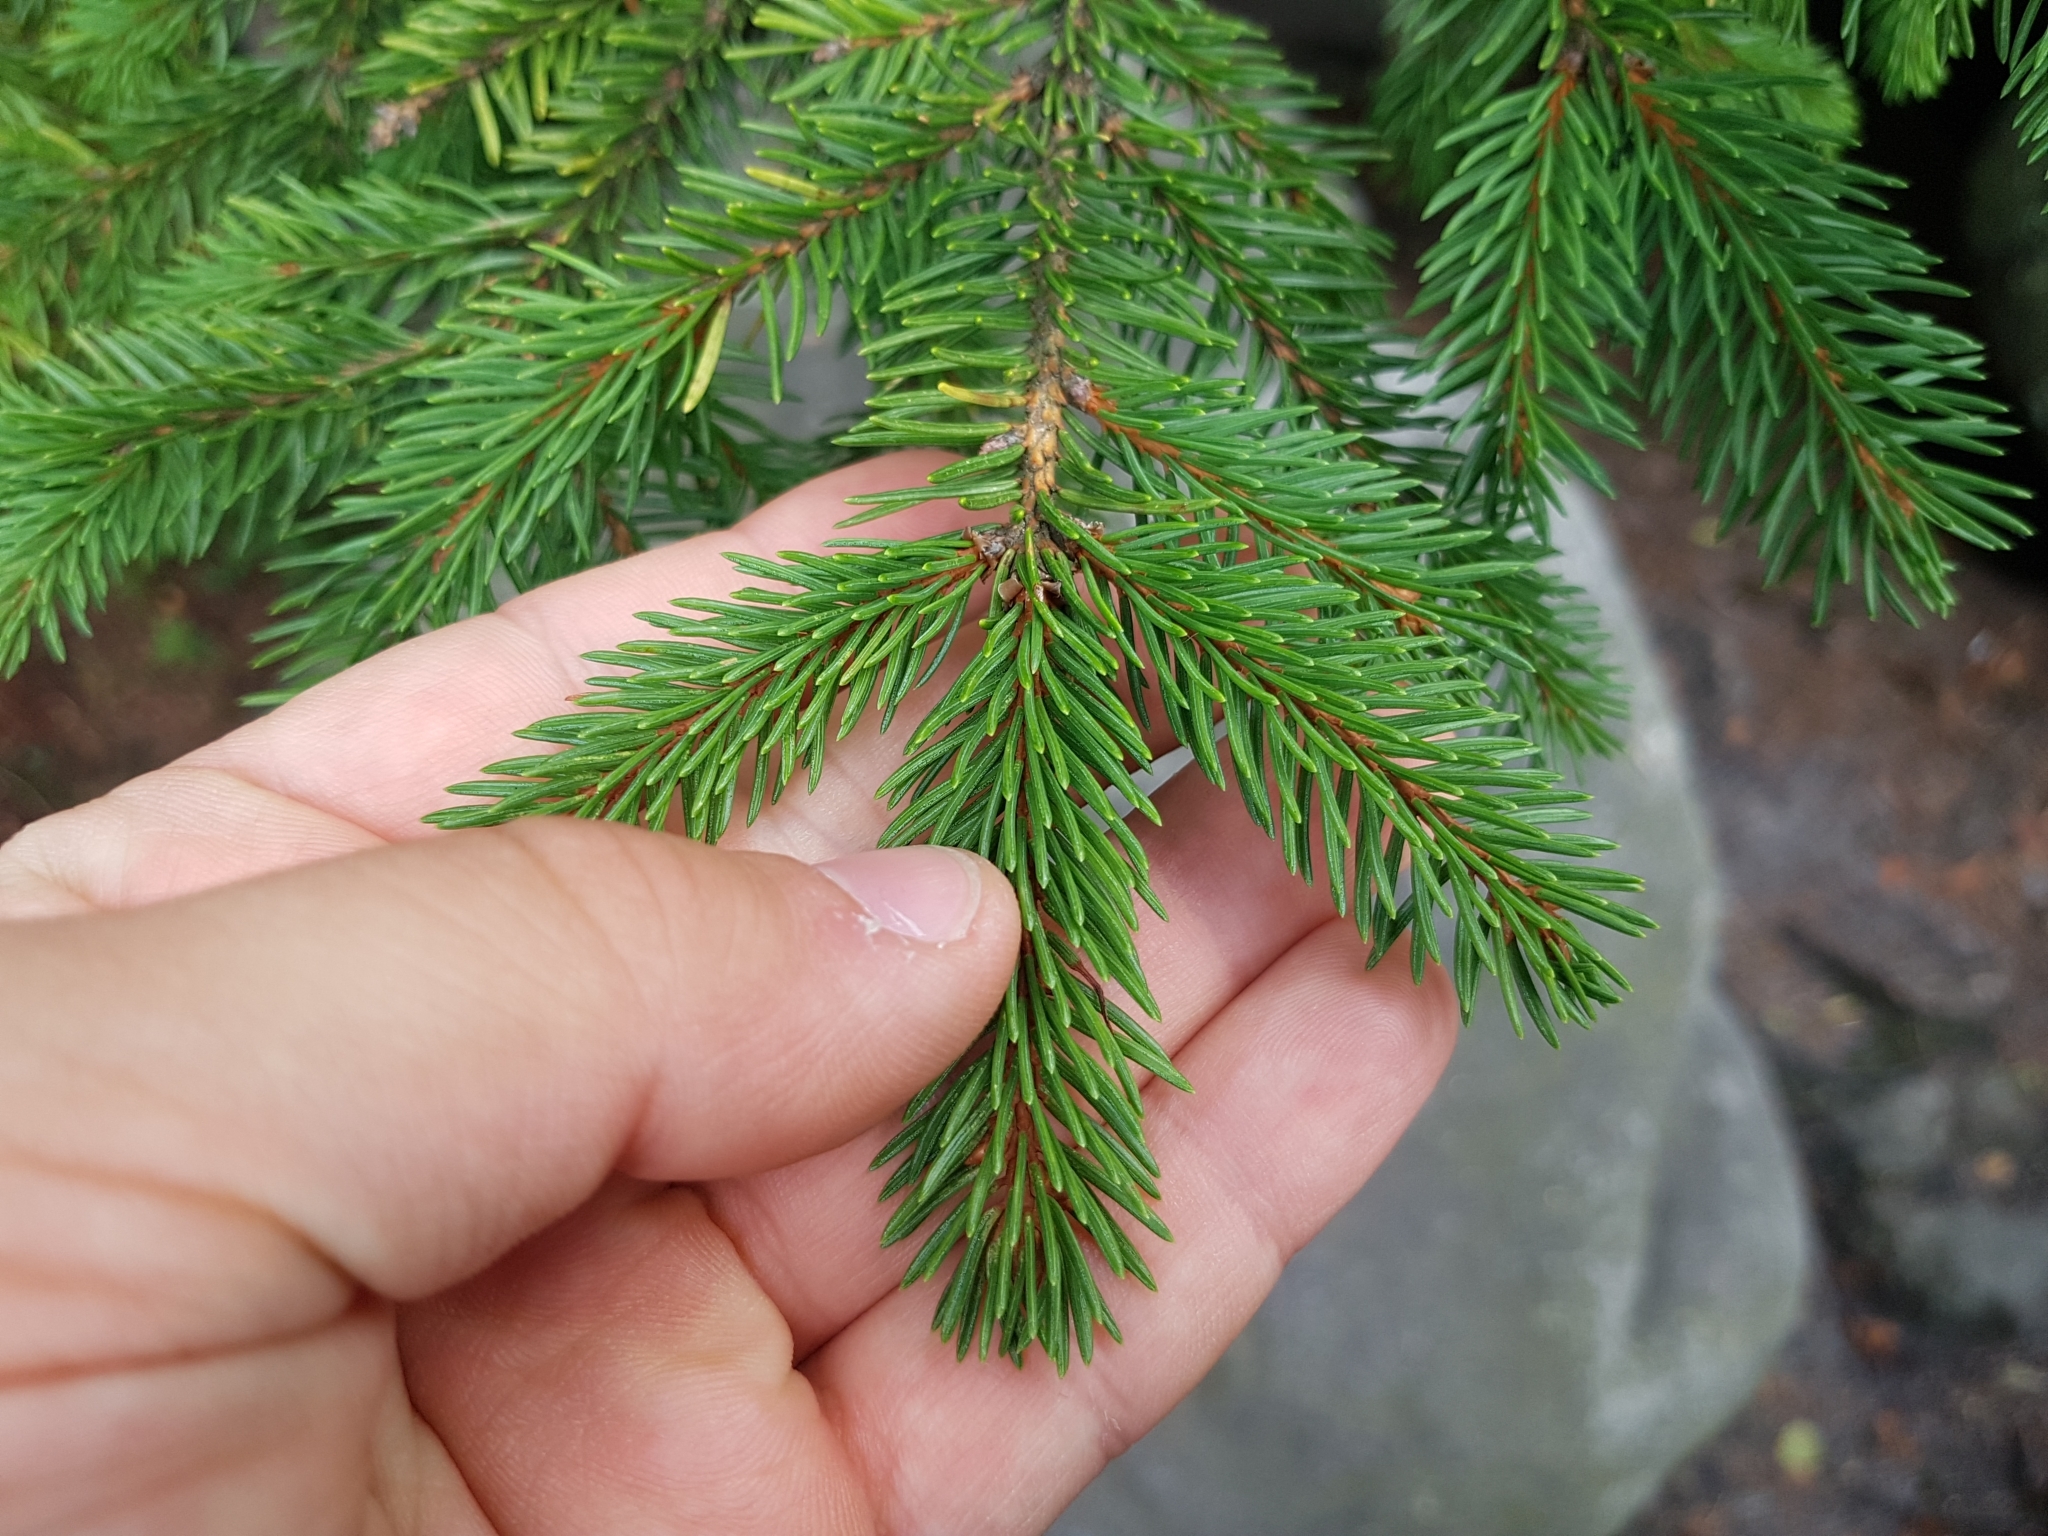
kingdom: Plantae
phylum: Tracheophyta
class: Pinopsida
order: Pinales
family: Pinaceae
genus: Picea
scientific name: Picea abies
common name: Norway spruce
